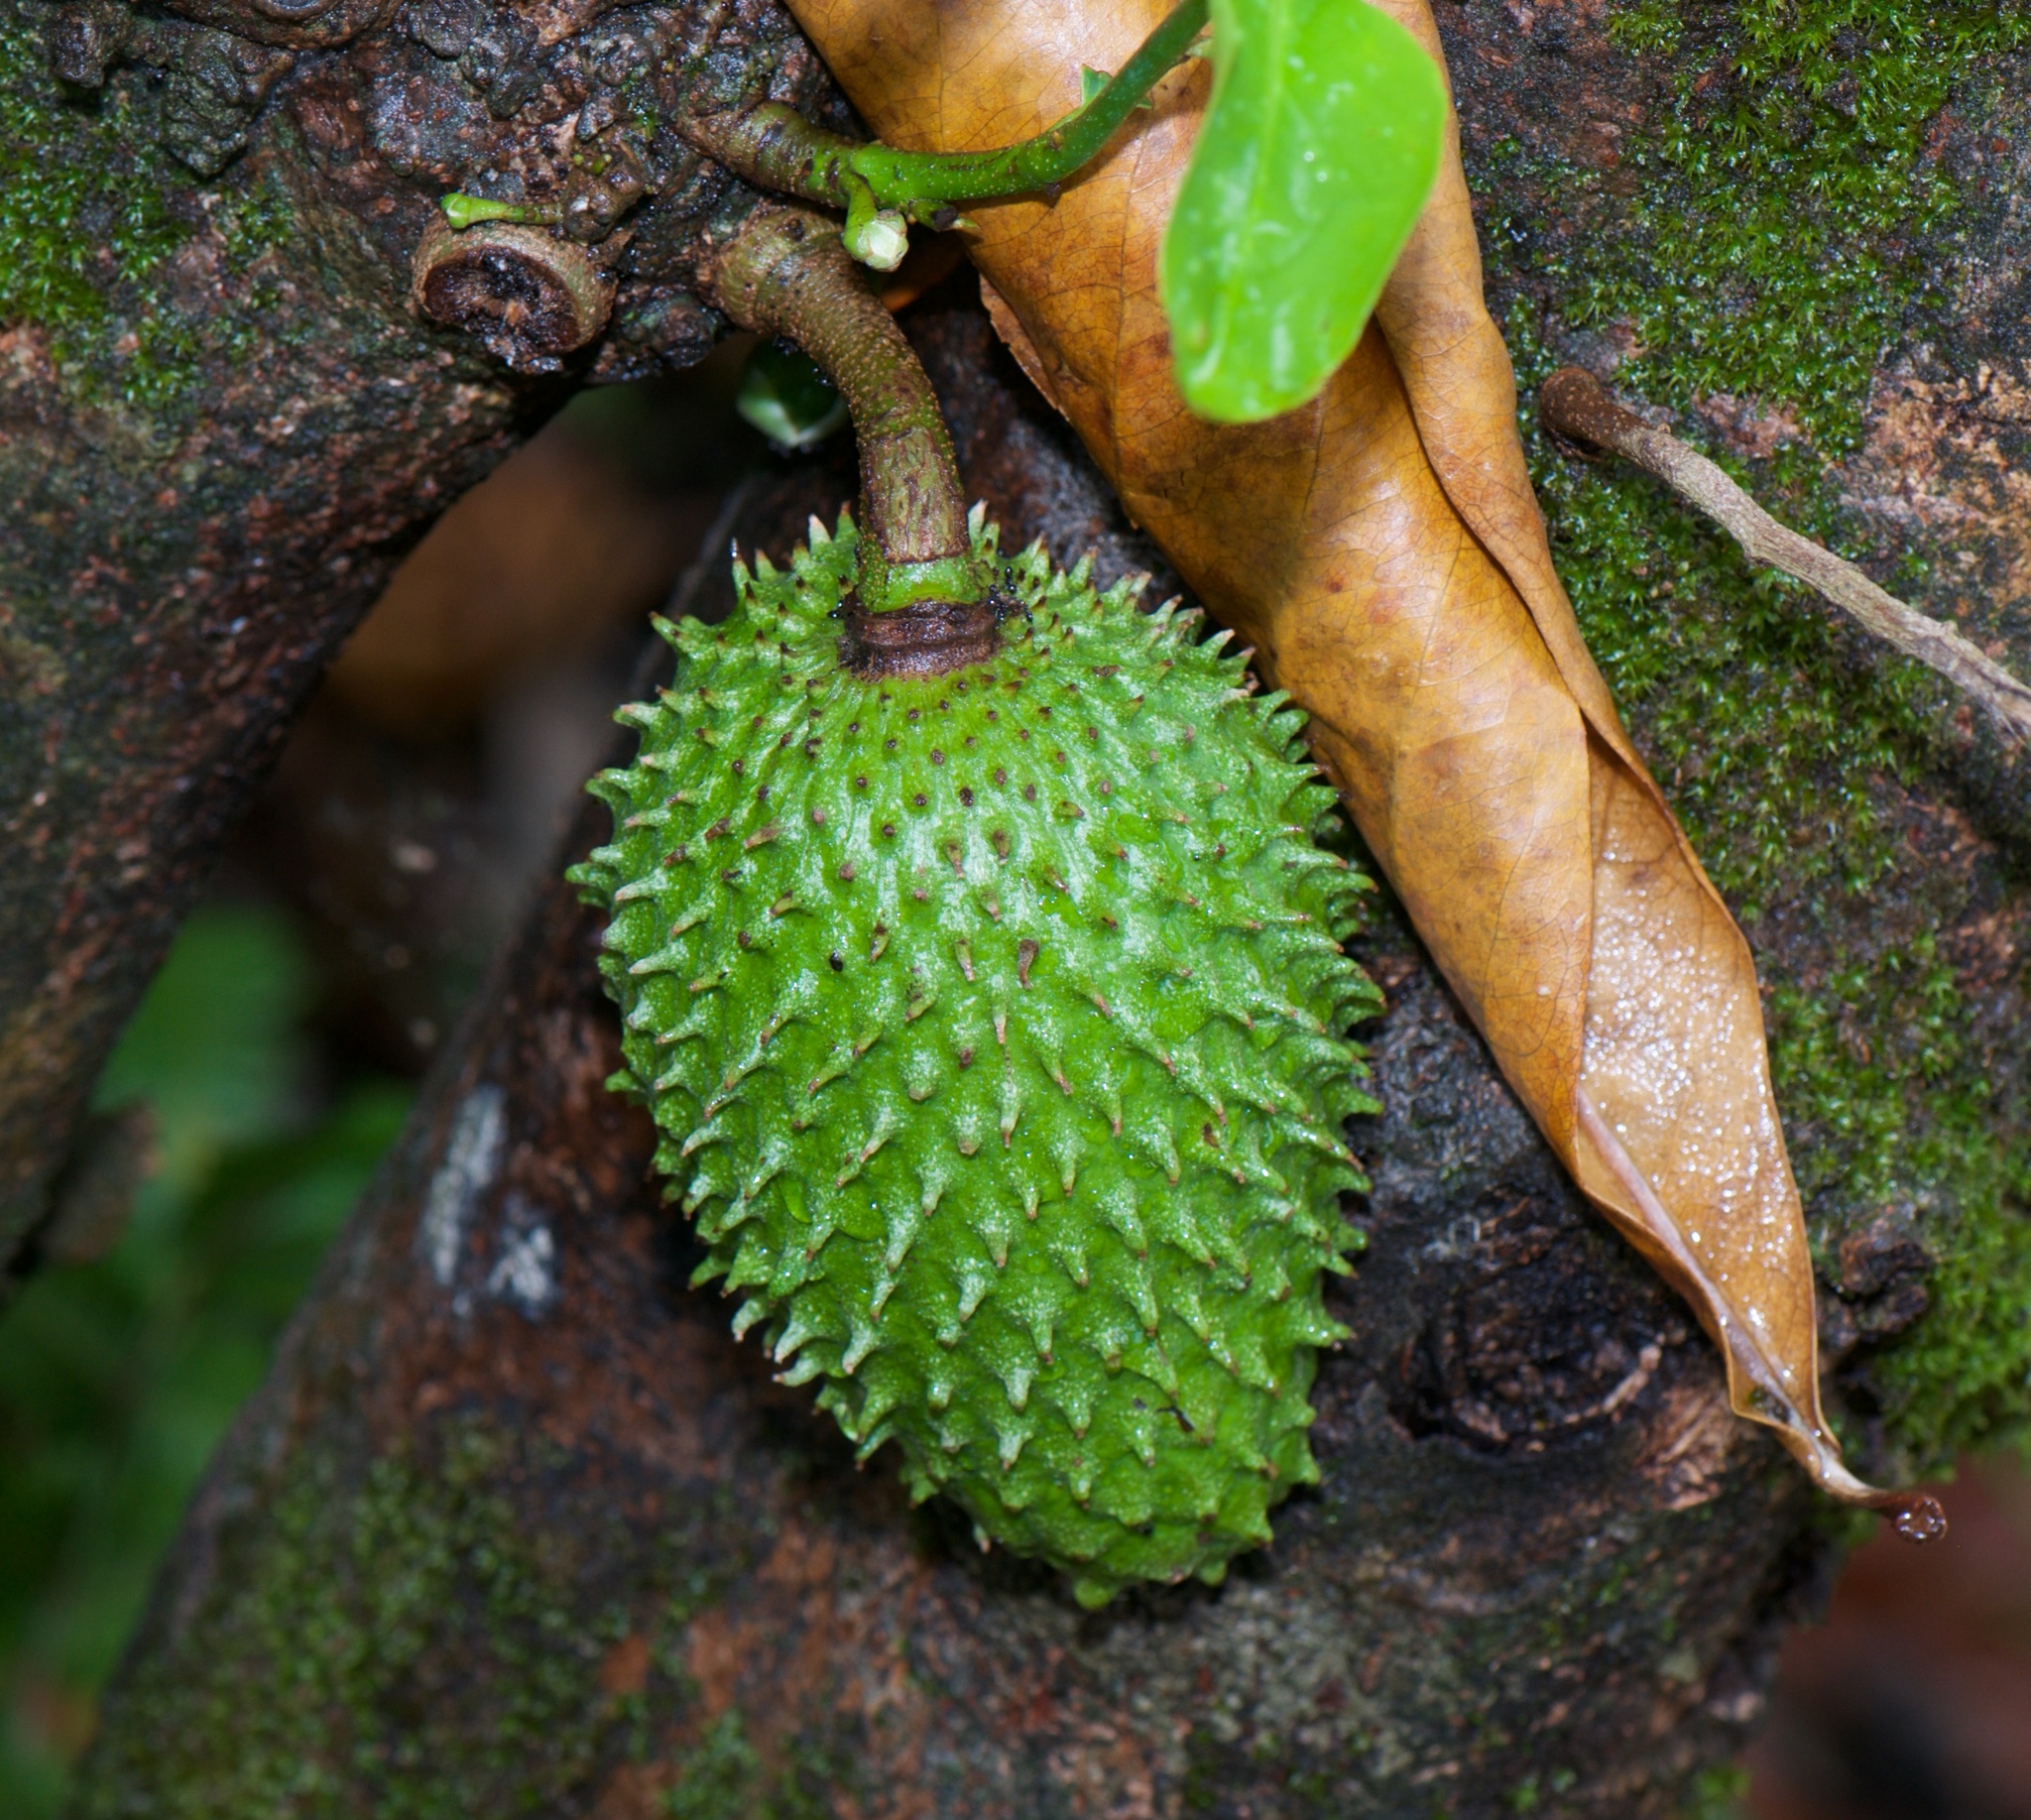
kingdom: Plantae
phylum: Tracheophyta
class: Magnoliopsida
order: Magnoliales
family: Annonaceae
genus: Annona
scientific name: Annona muricata
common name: Soursop
